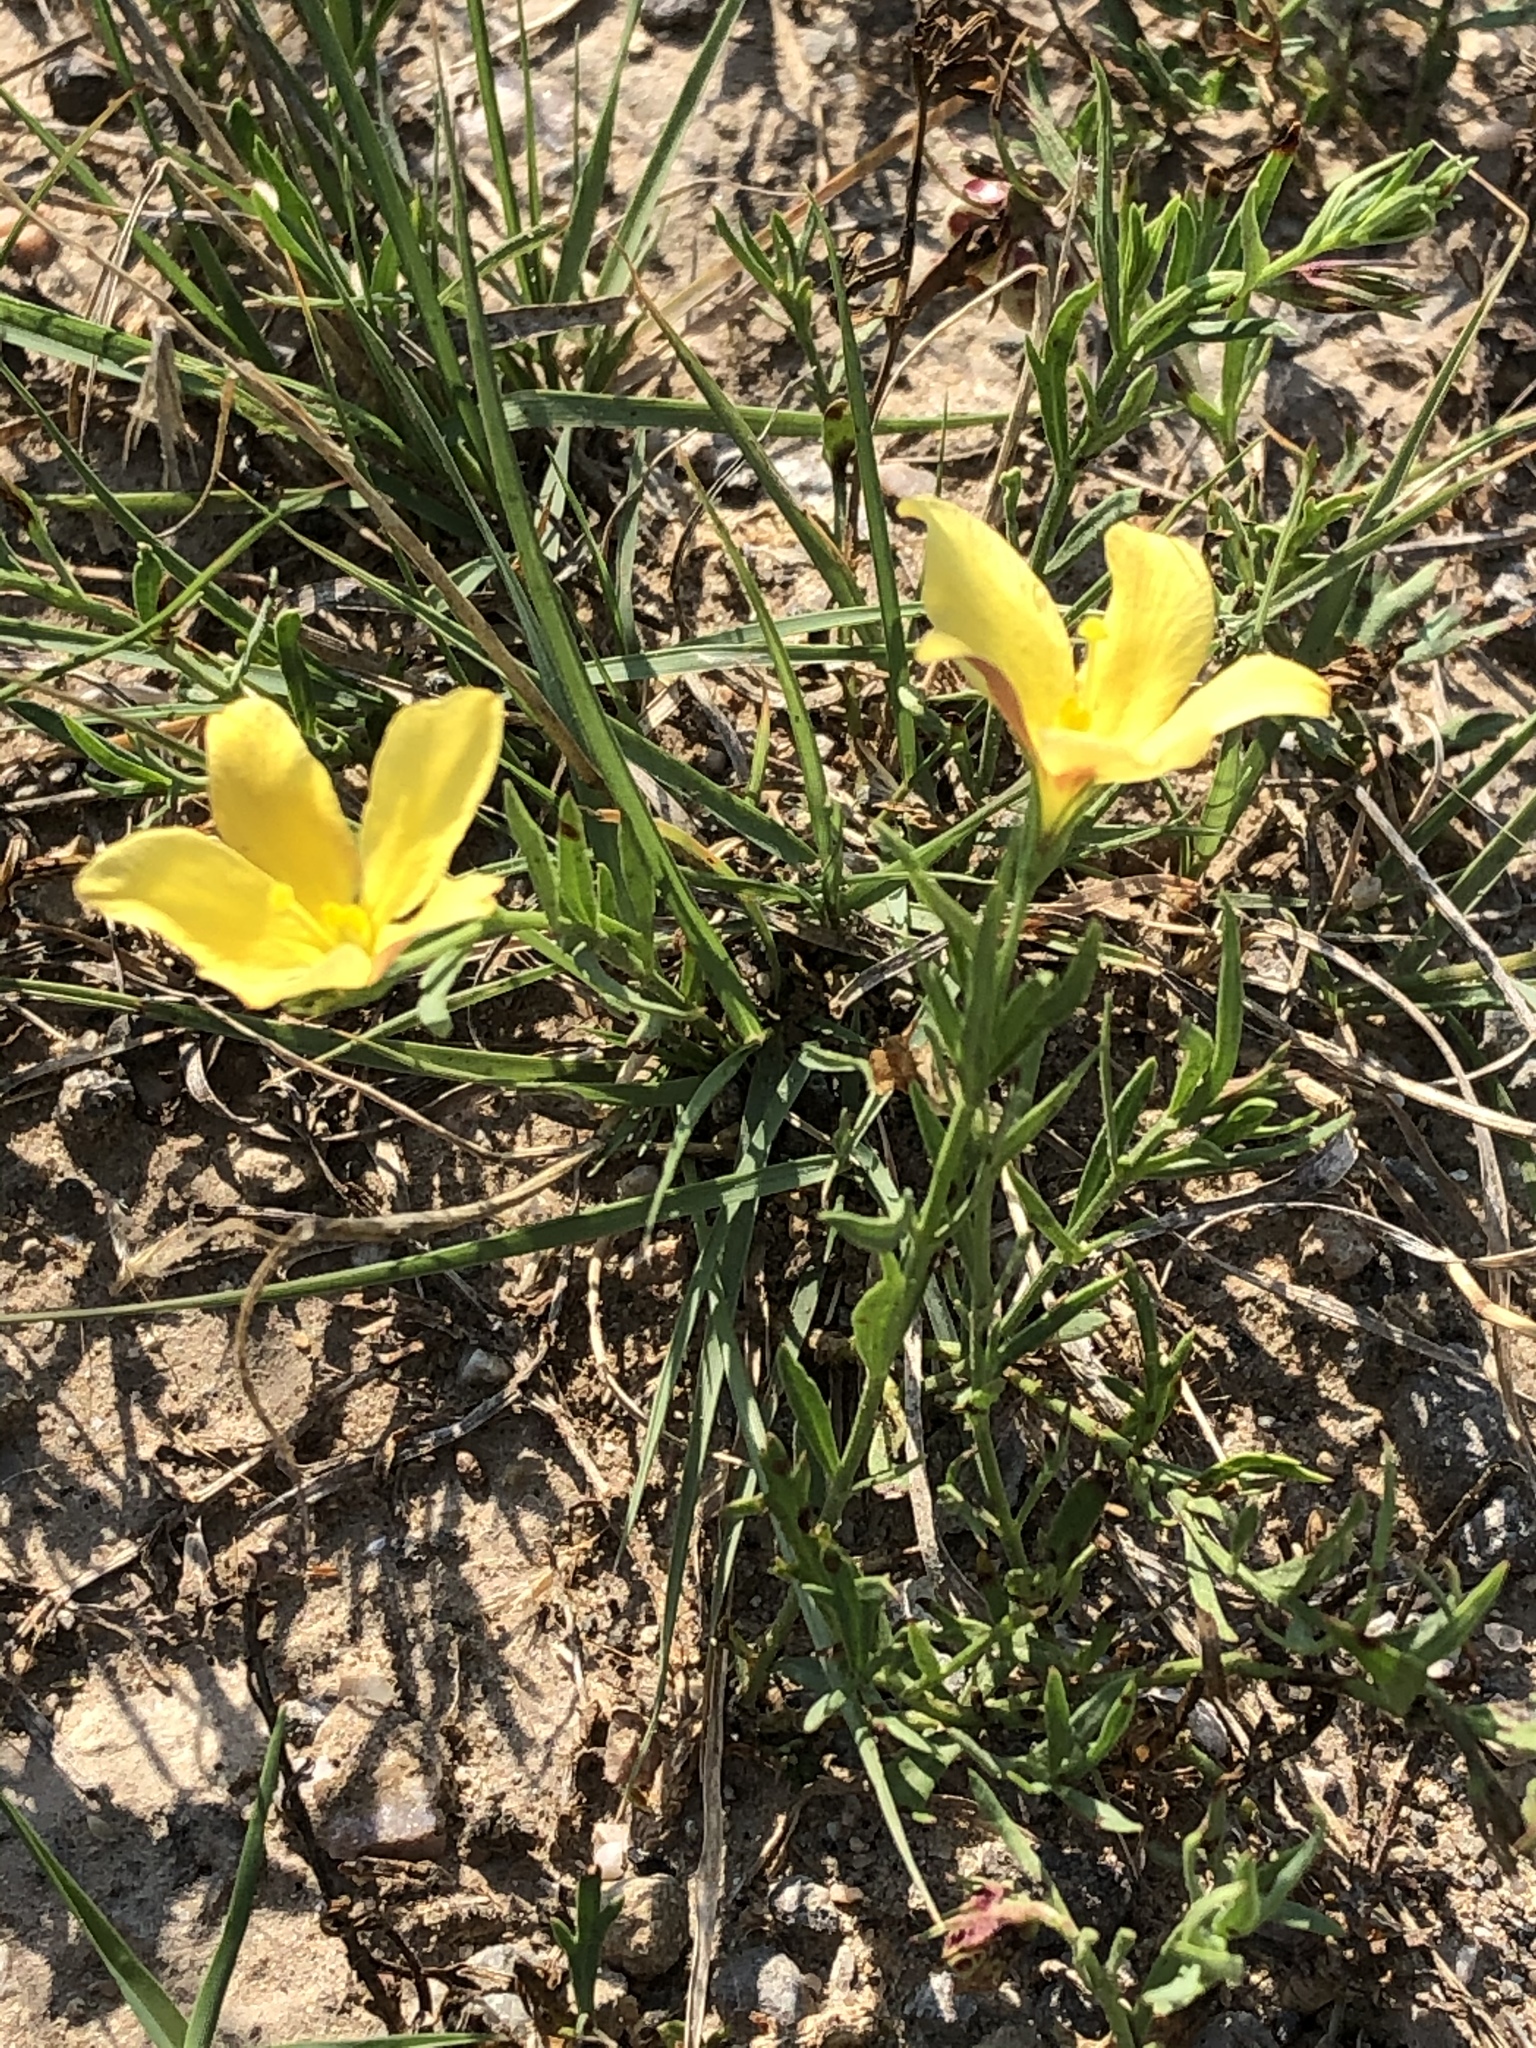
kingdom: Plantae
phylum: Tracheophyta
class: Magnoliopsida
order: Lamiales
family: Oleaceae
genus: Menodora
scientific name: Menodora heterophylla
